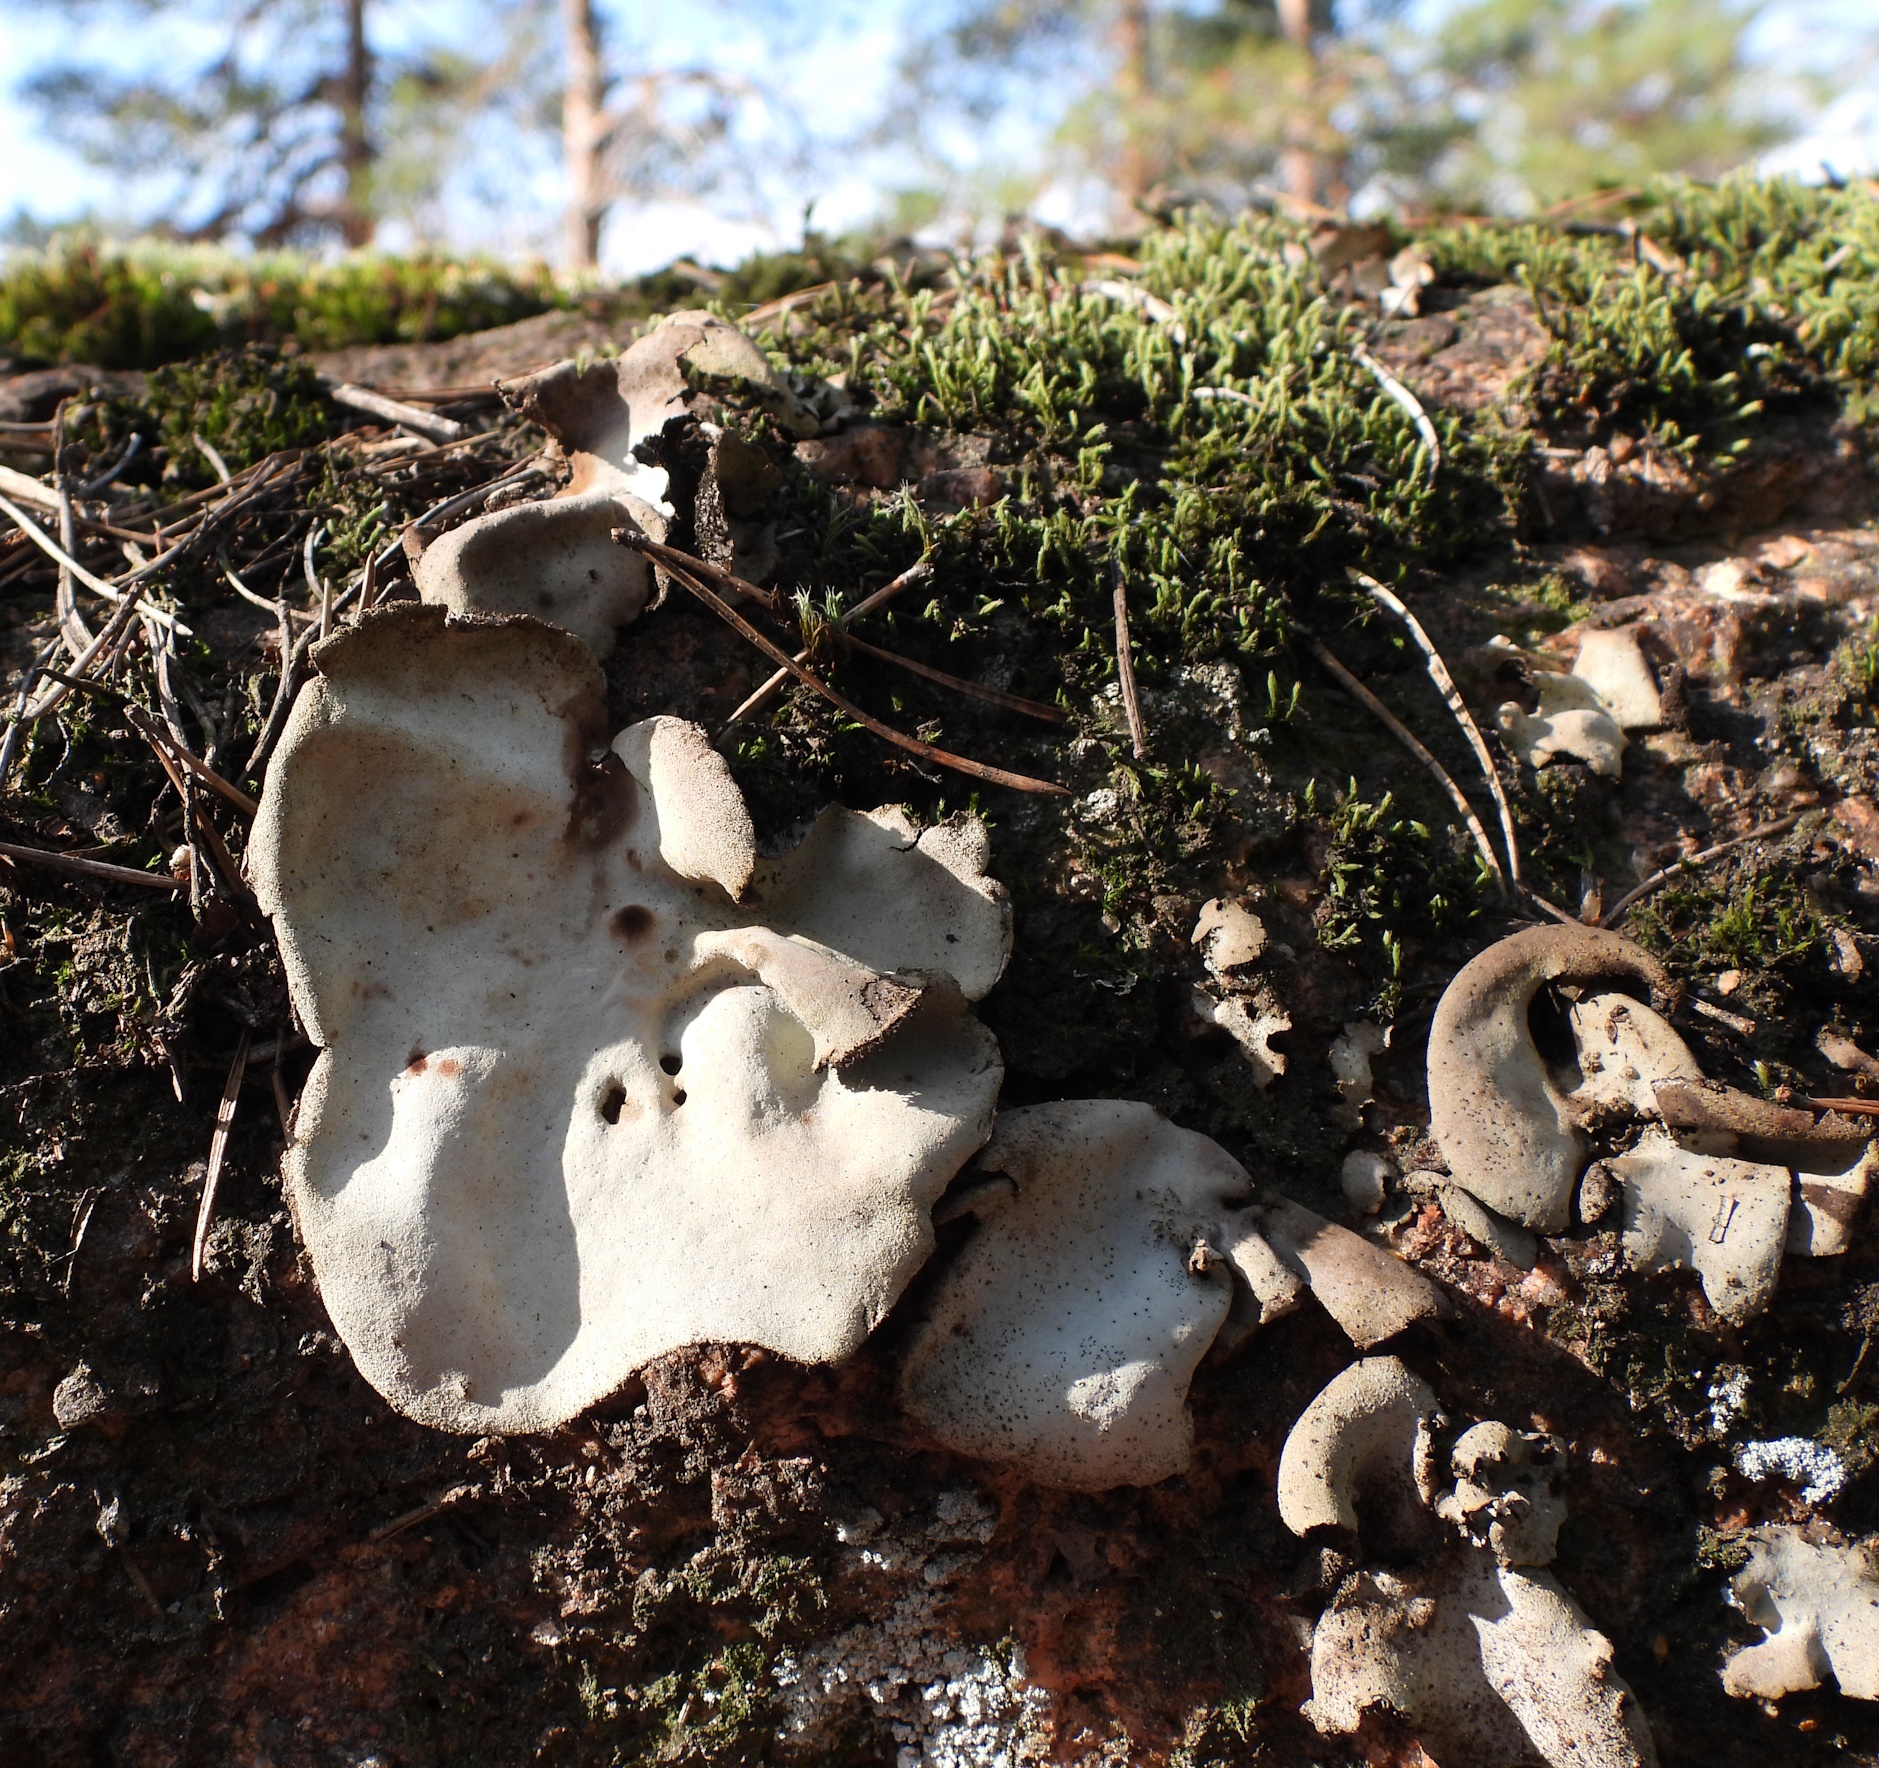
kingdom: Fungi
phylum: Ascomycota
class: Lecanoromycetes
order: Umbilicariales
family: Umbilicariaceae
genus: Umbilicaria
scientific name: Umbilicaria hirsuta
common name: Granulating rocktripe lichen
